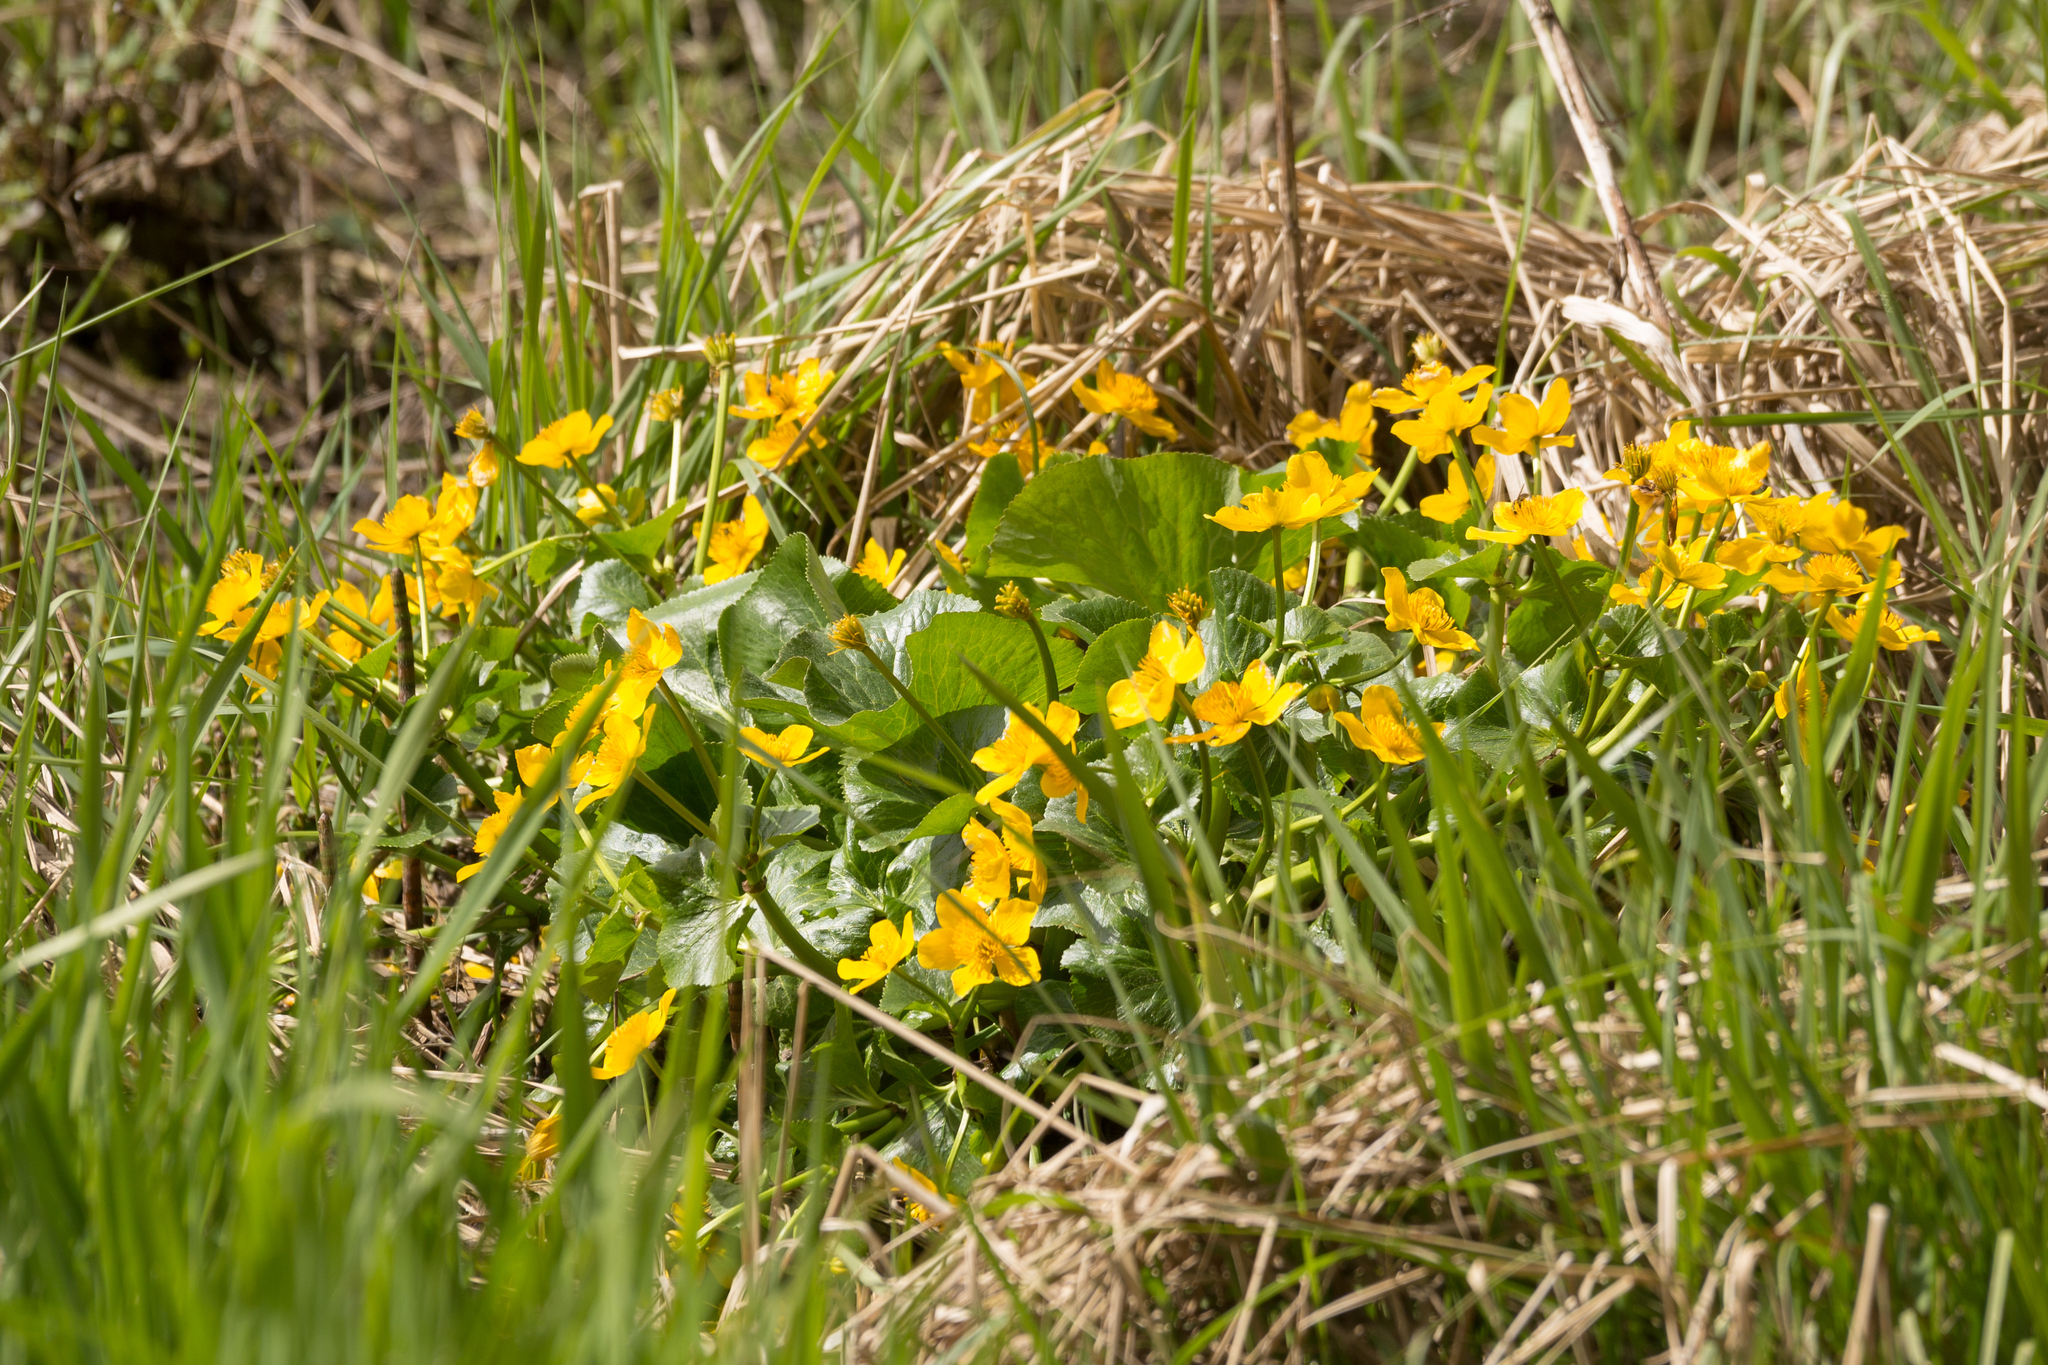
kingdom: Plantae
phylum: Tracheophyta
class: Magnoliopsida
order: Ranunculales
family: Ranunculaceae
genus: Caltha
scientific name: Caltha palustris
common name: Marsh marigold
